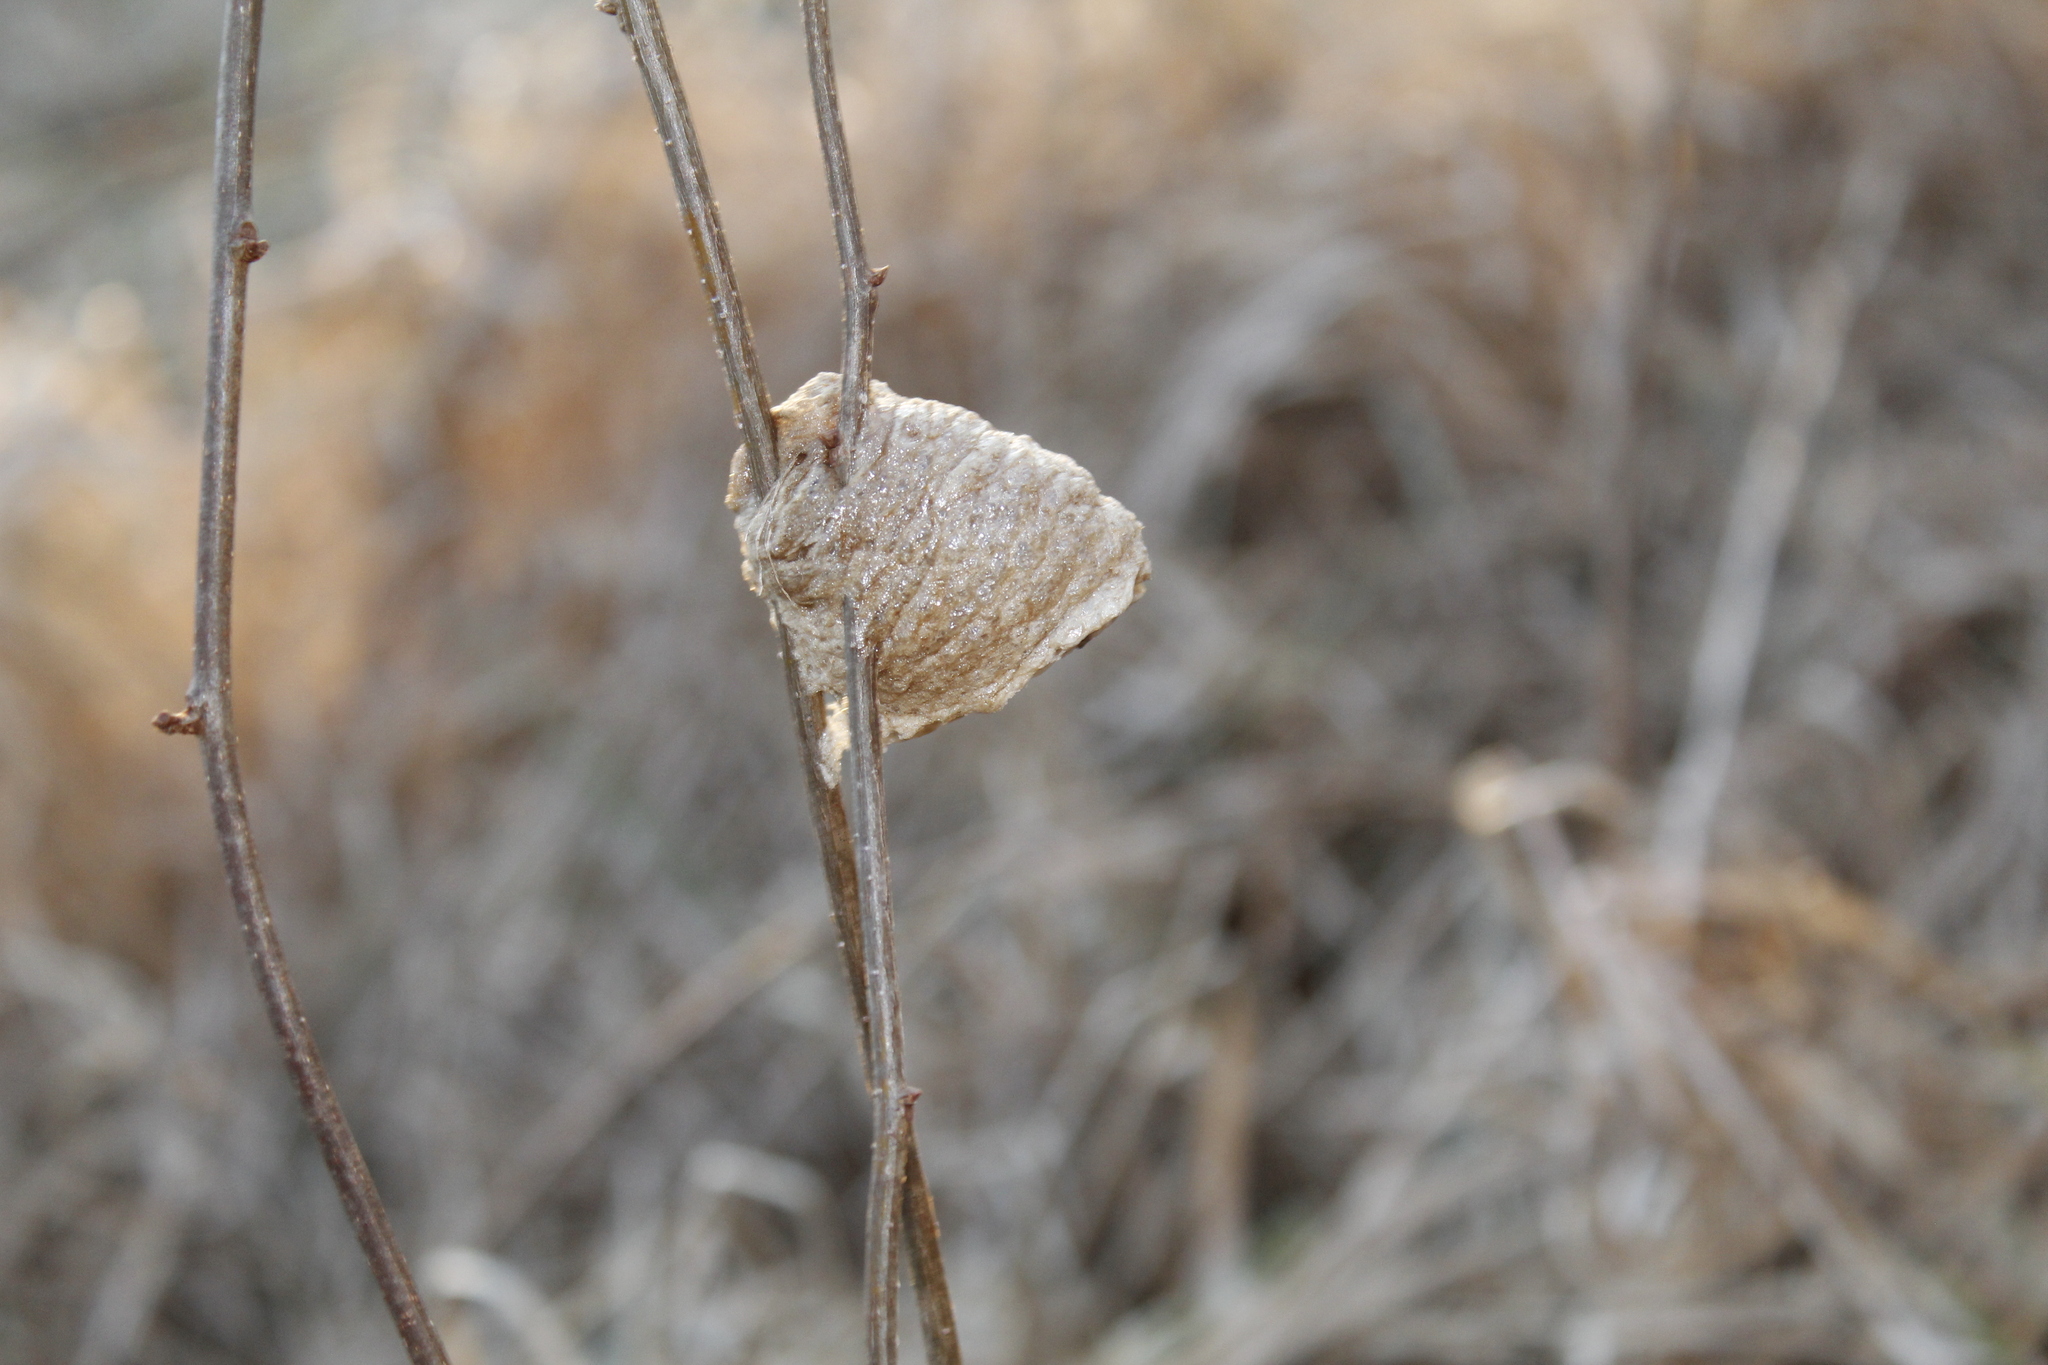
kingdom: Animalia
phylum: Arthropoda
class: Insecta
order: Mantodea
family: Mantidae
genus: Tenodera
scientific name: Tenodera sinensis
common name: Chinese mantis
